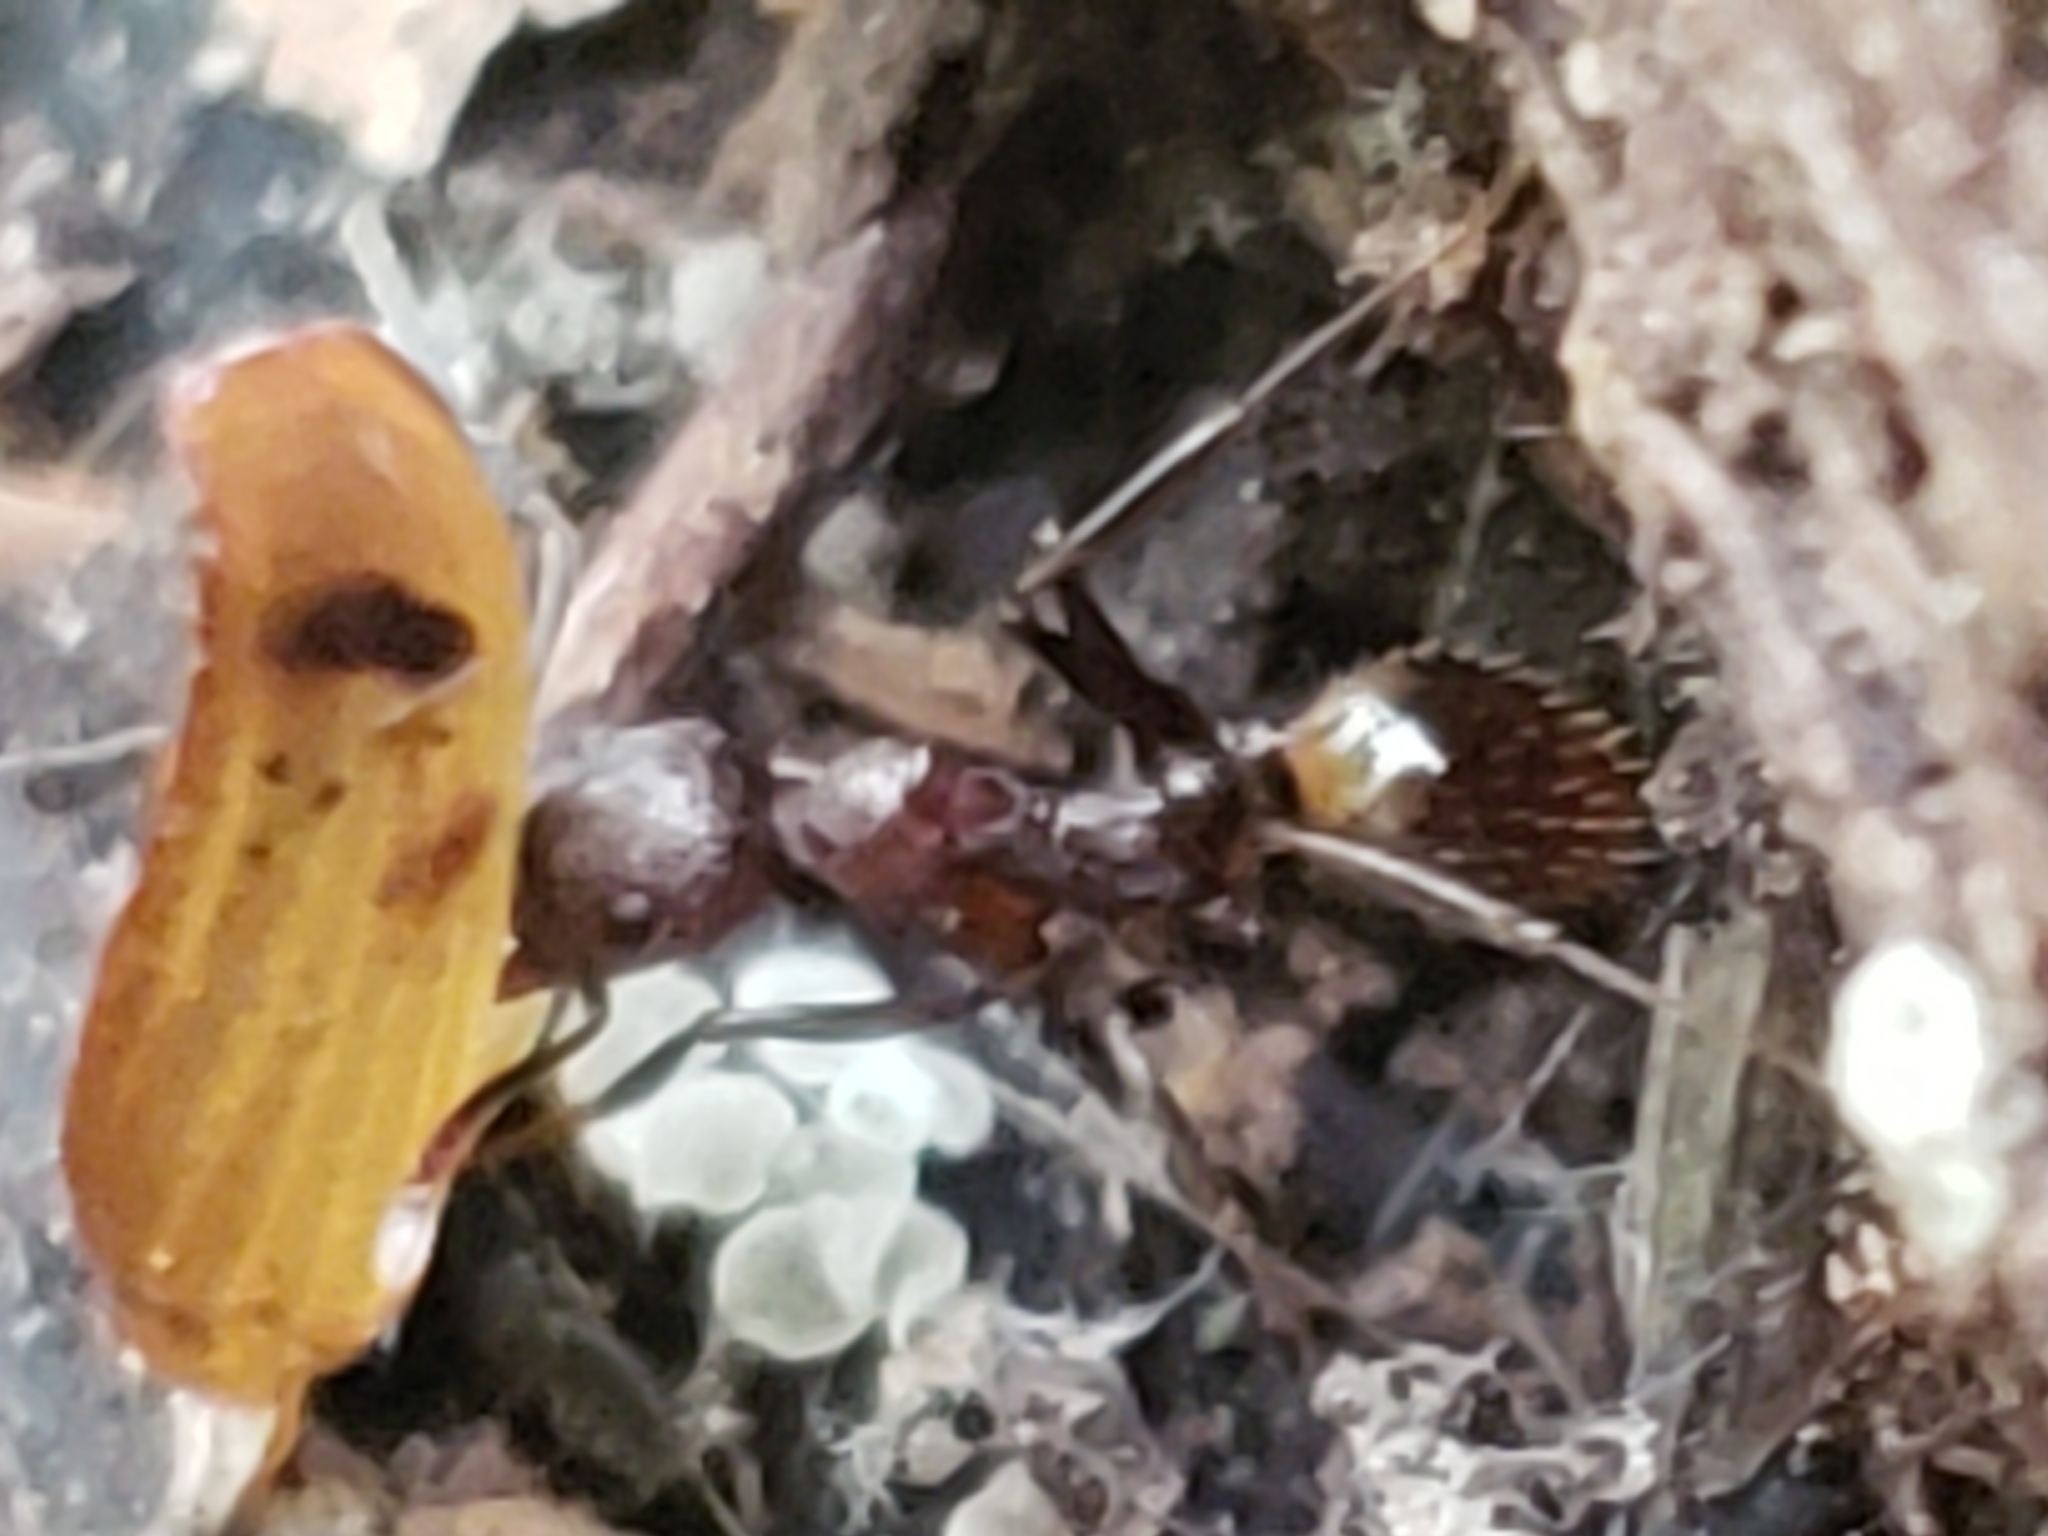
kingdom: Animalia
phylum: Arthropoda
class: Insecta
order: Hymenoptera
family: Formicidae
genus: Aphaenogaster
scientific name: Aphaenogaster fulva
